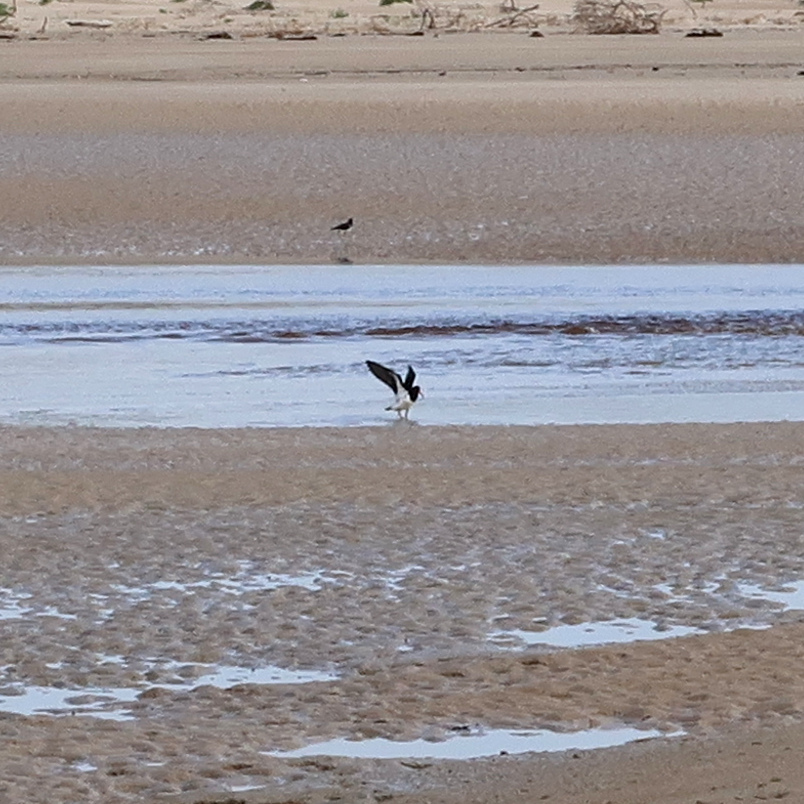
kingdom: Animalia
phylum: Chordata
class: Aves
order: Charadriiformes
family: Haematopodidae
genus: Haematopus
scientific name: Haematopus longirostris
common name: Pied oystercatcher
